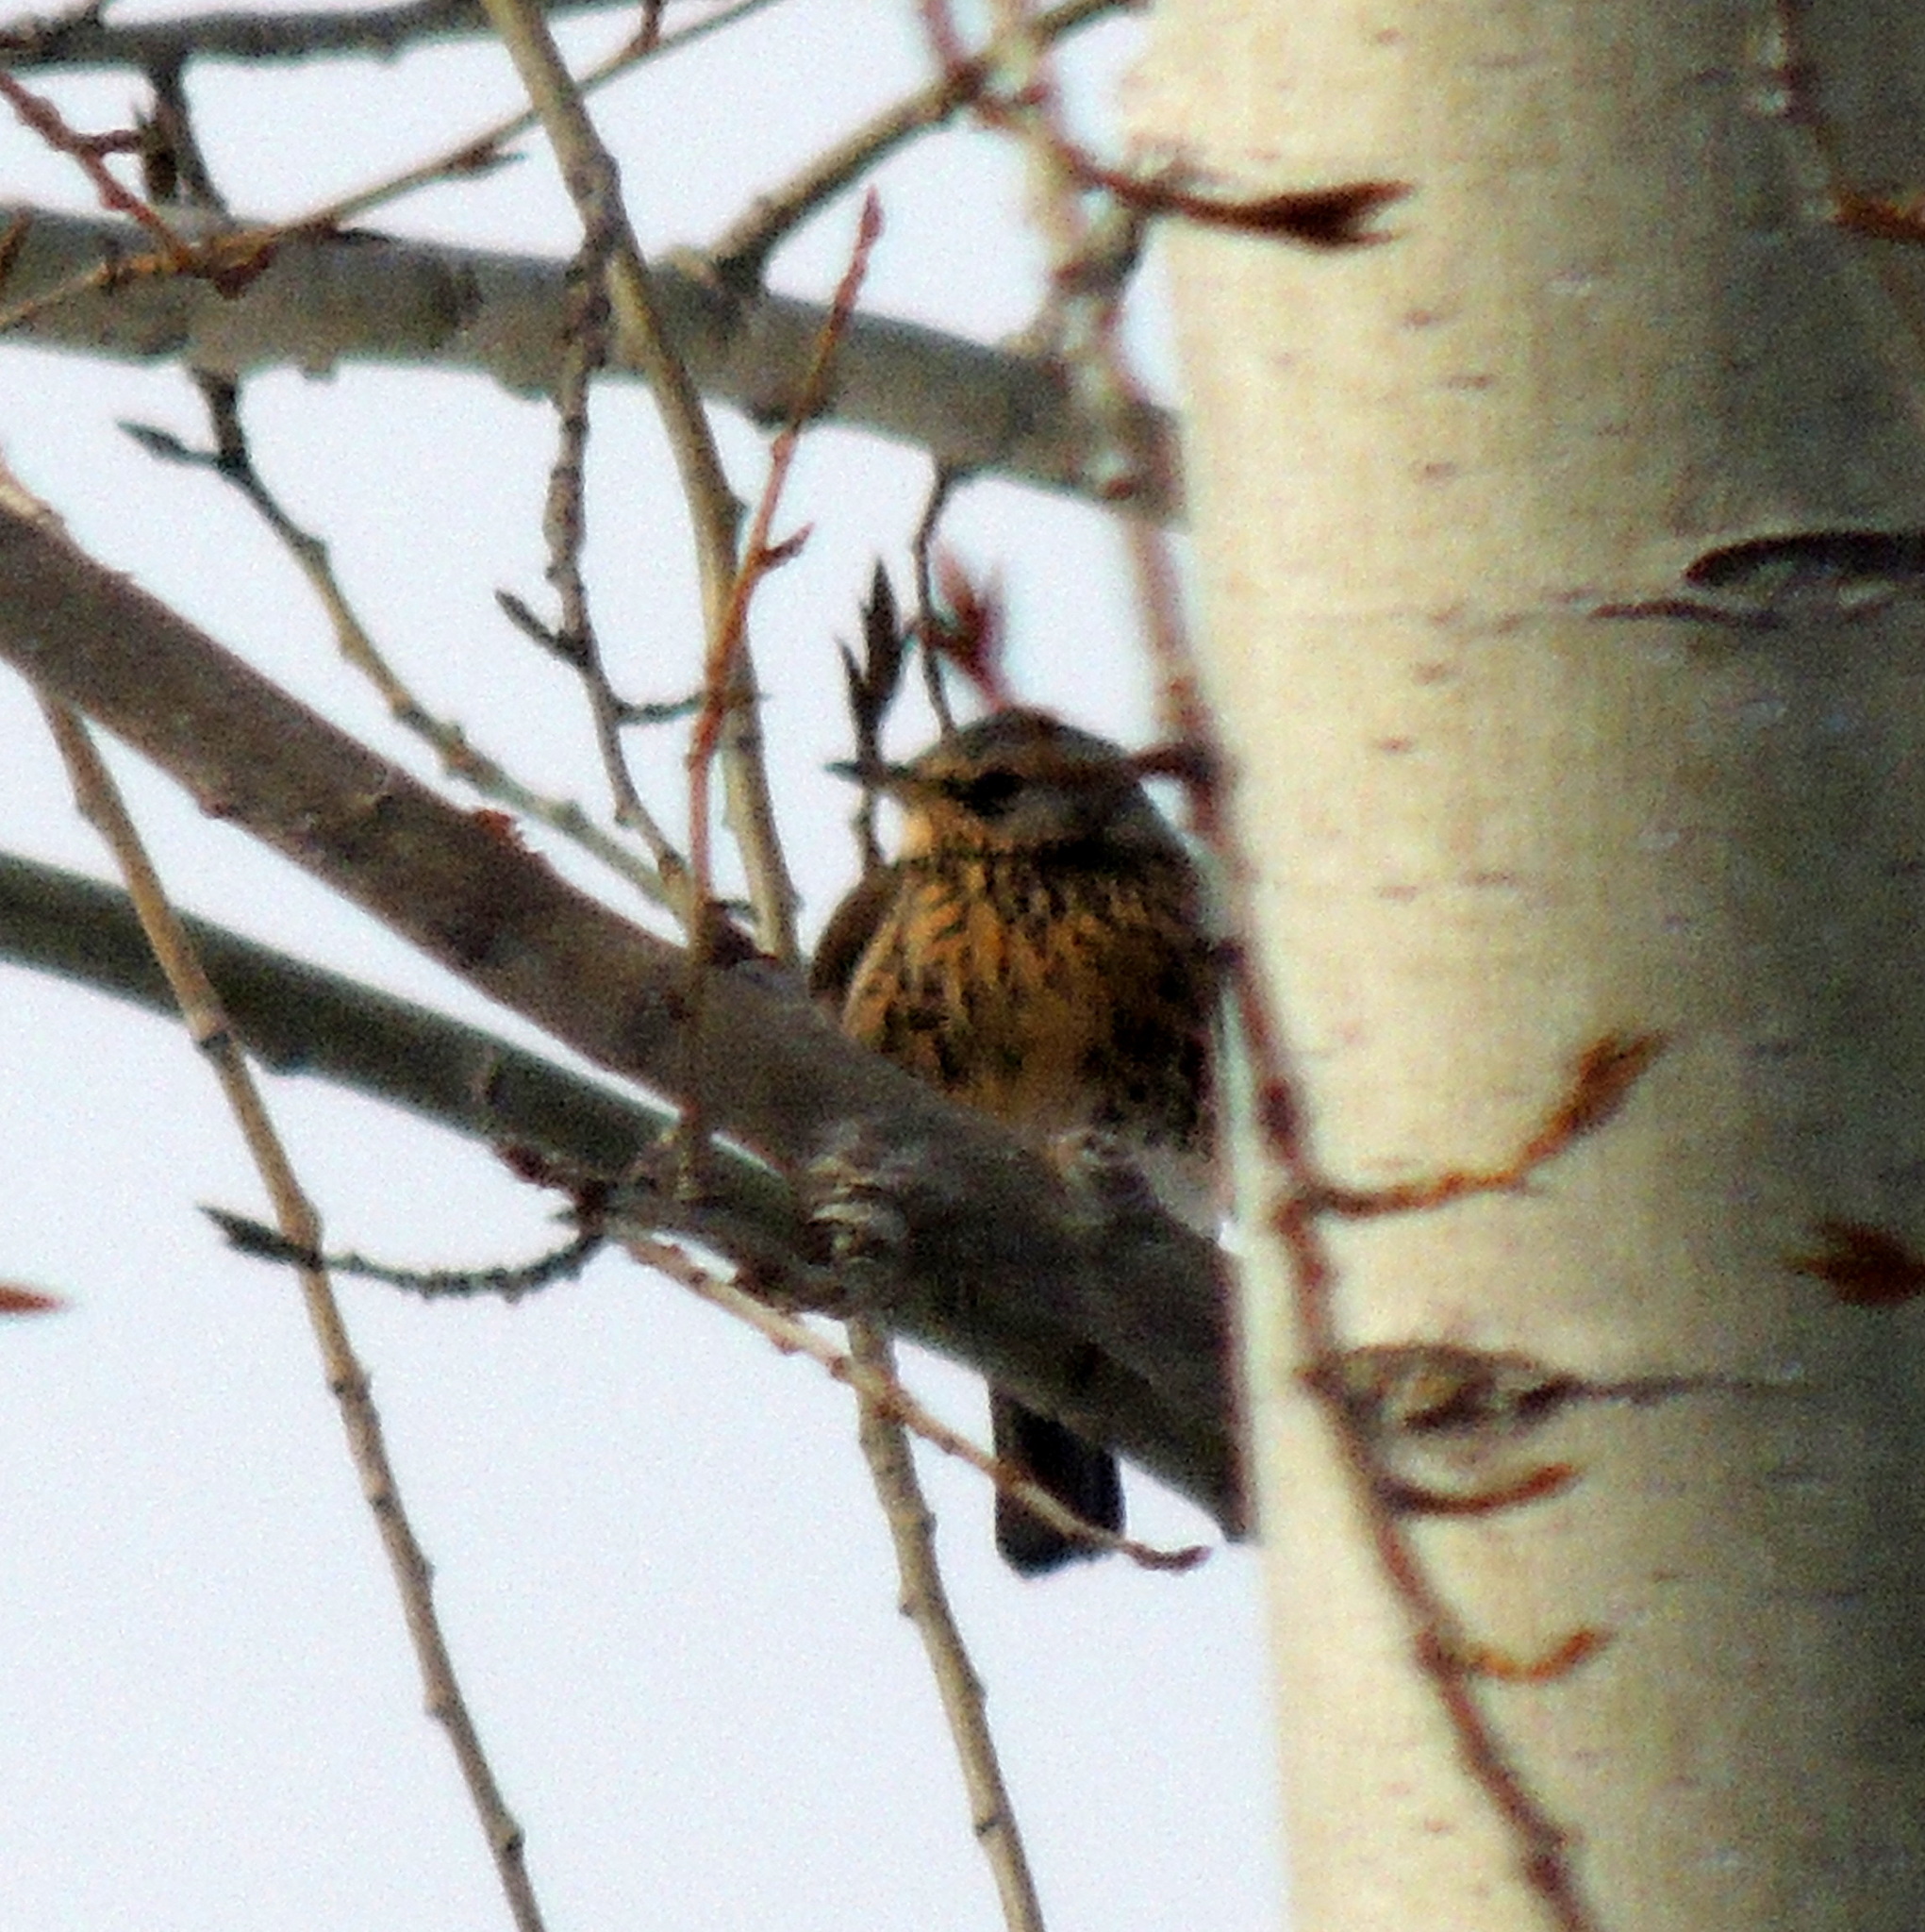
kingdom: Animalia
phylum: Chordata
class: Aves
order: Passeriformes
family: Turdidae
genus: Turdus
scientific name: Turdus pilaris
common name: Fieldfare
